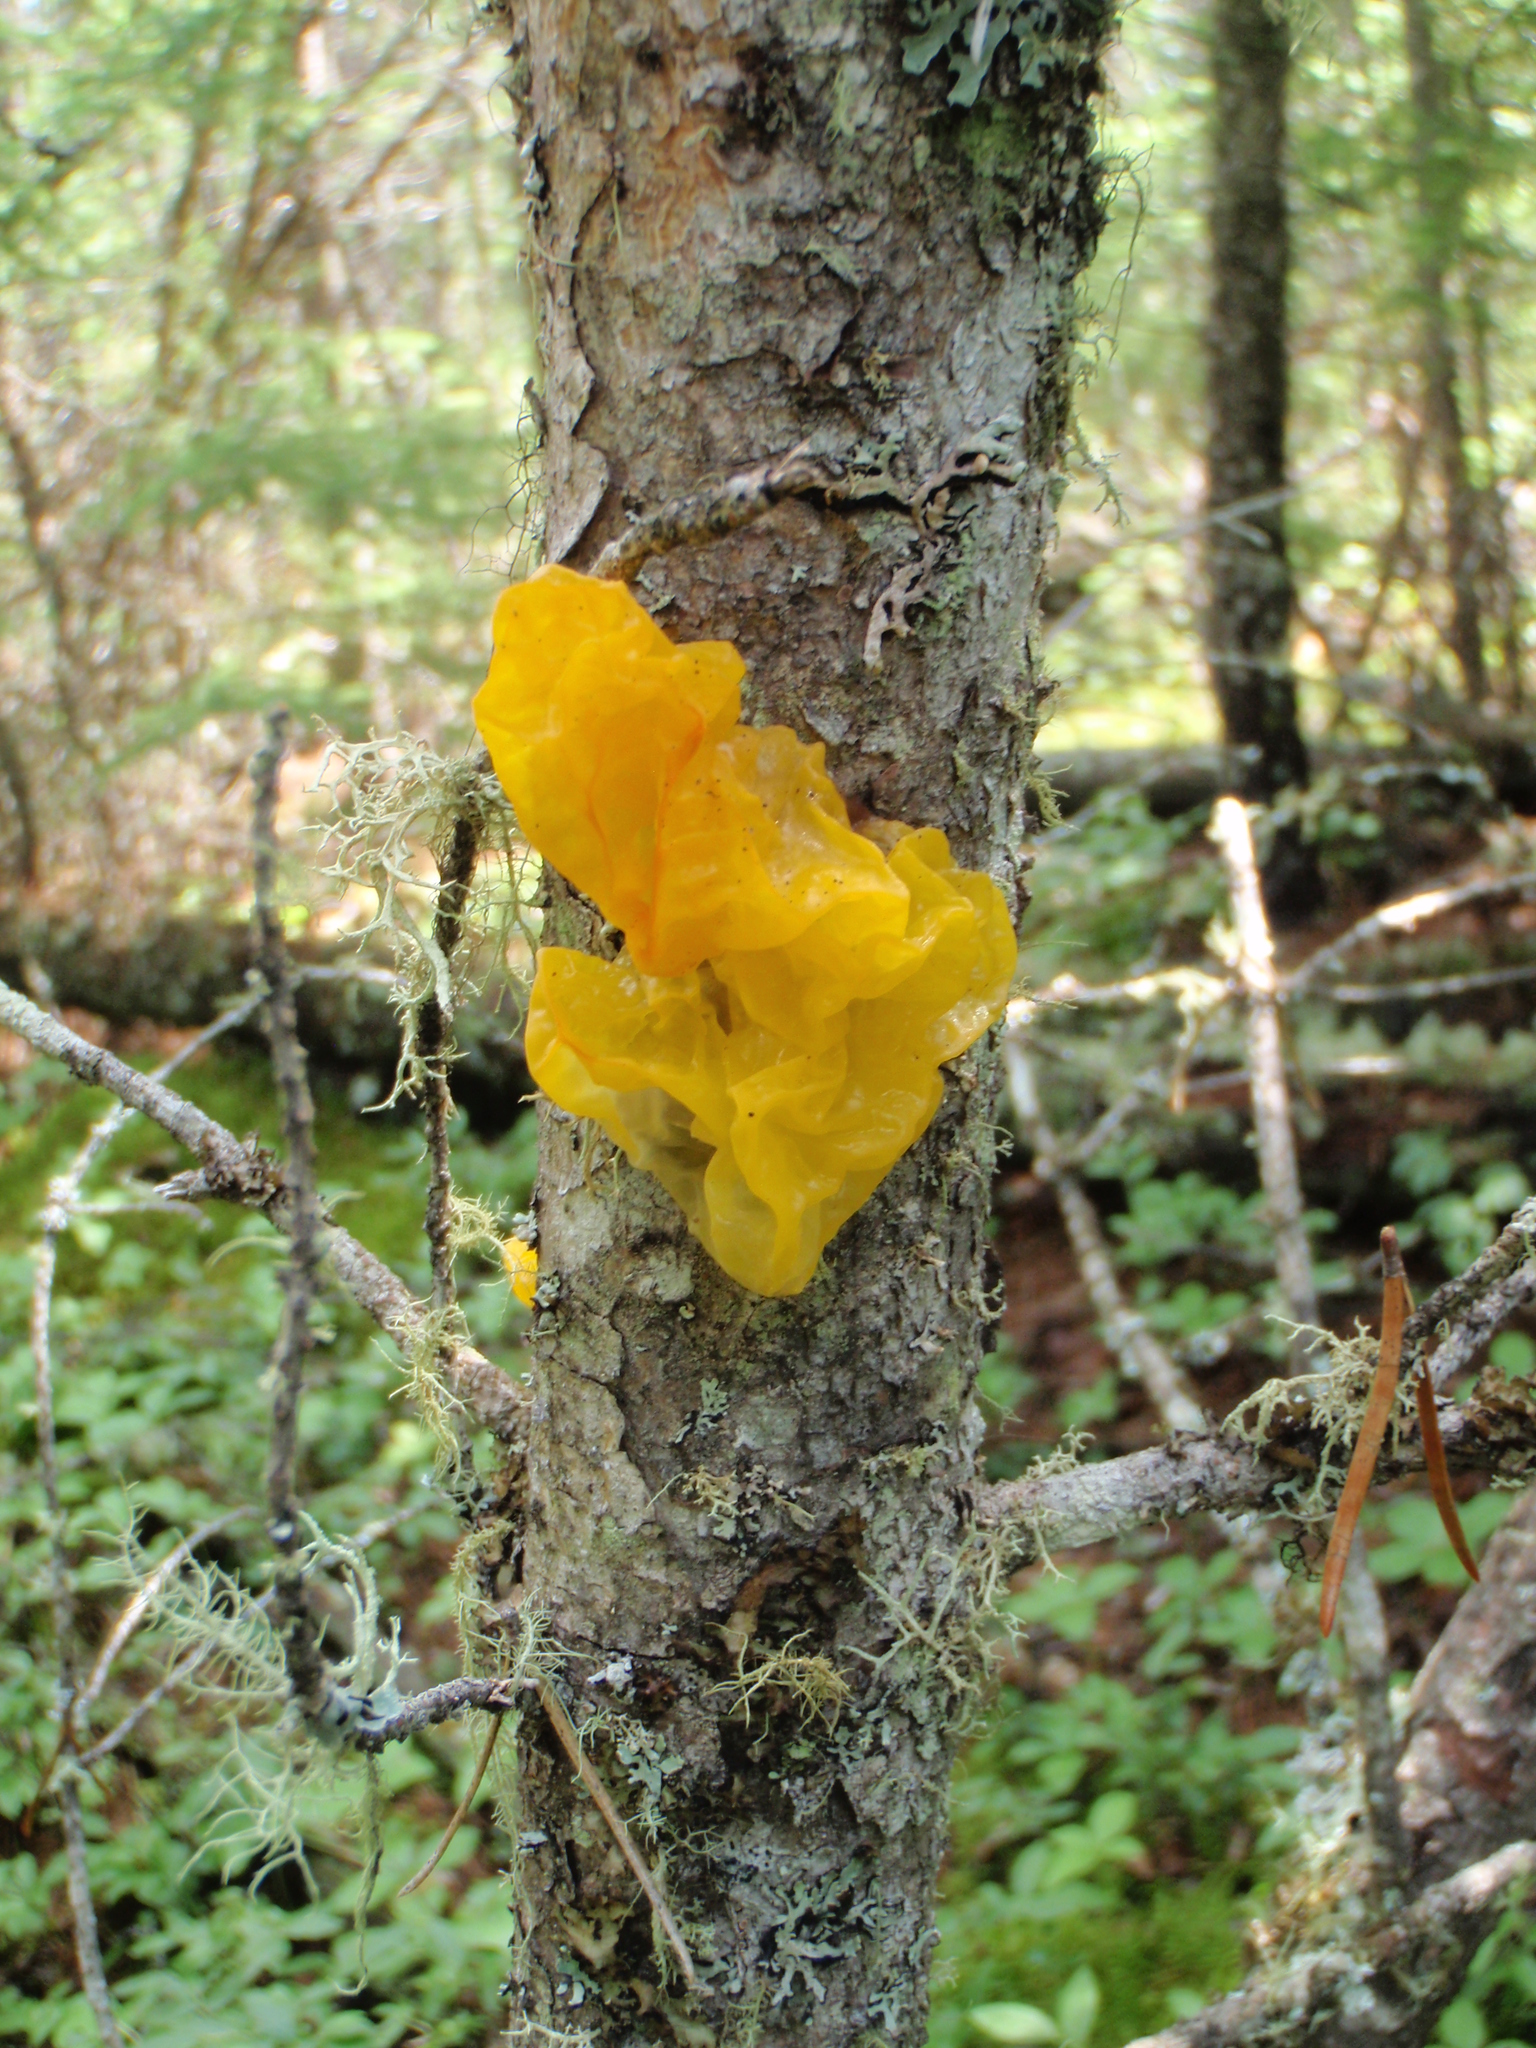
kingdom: Fungi
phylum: Basidiomycota
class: Tremellomycetes
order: Tremellales
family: Tremellaceae
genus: Tremella
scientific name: Tremella mesenterica
